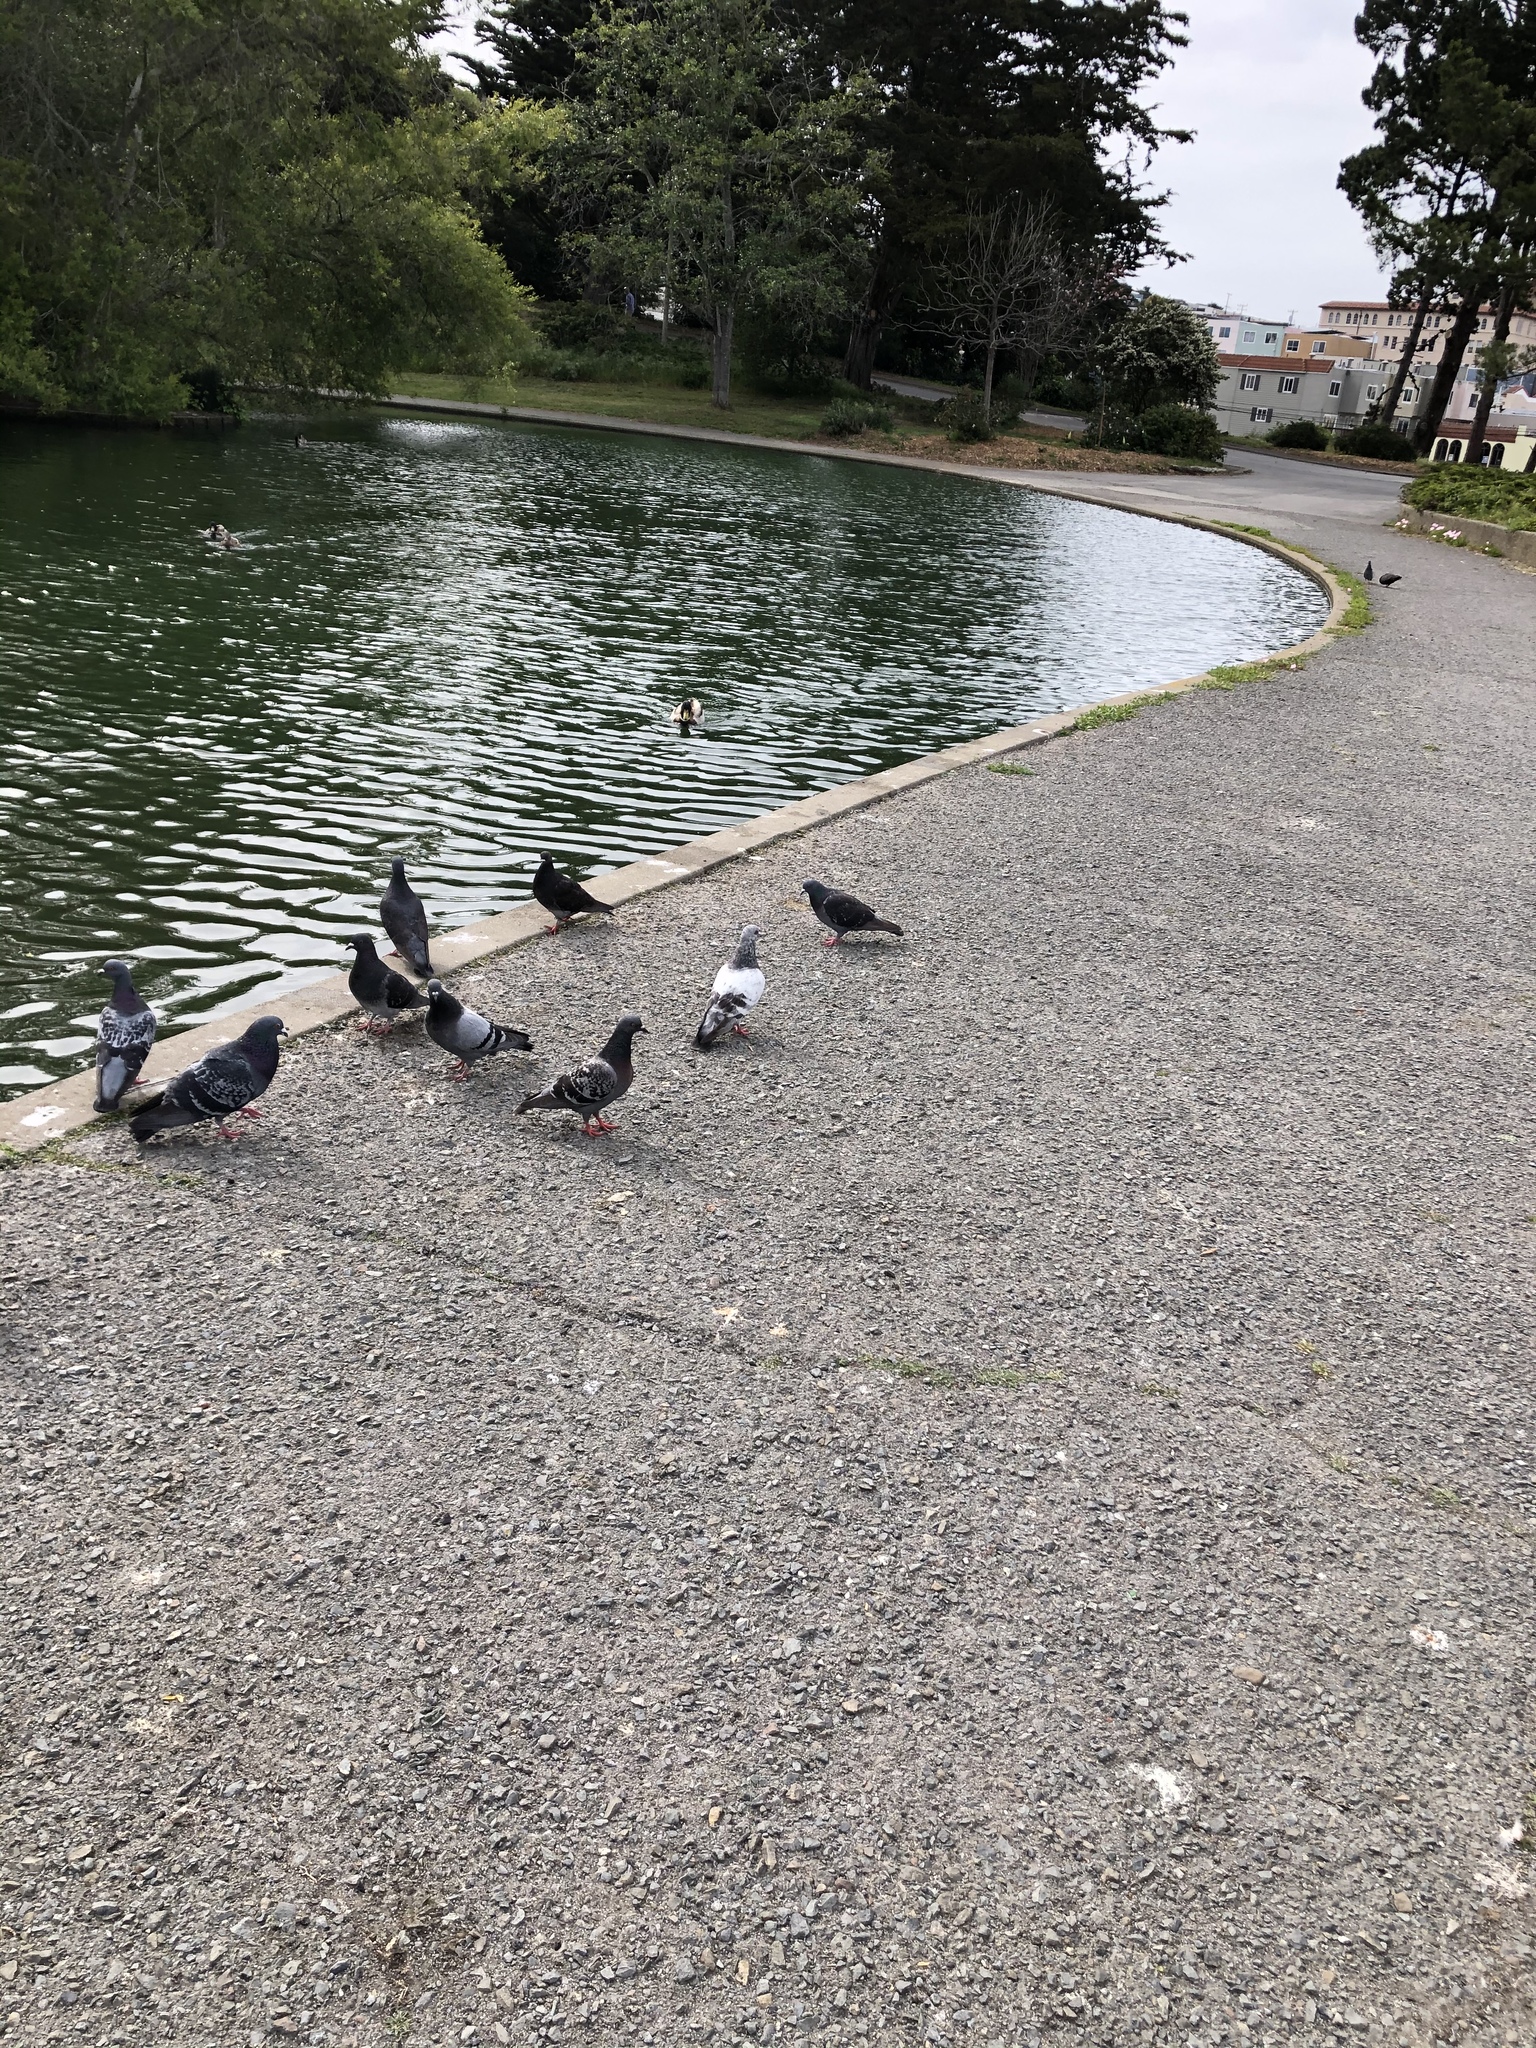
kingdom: Animalia
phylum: Chordata
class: Aves
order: Columbiformes
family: Columbidae
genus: Columba
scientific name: Columba livia
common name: Rock pigeon
